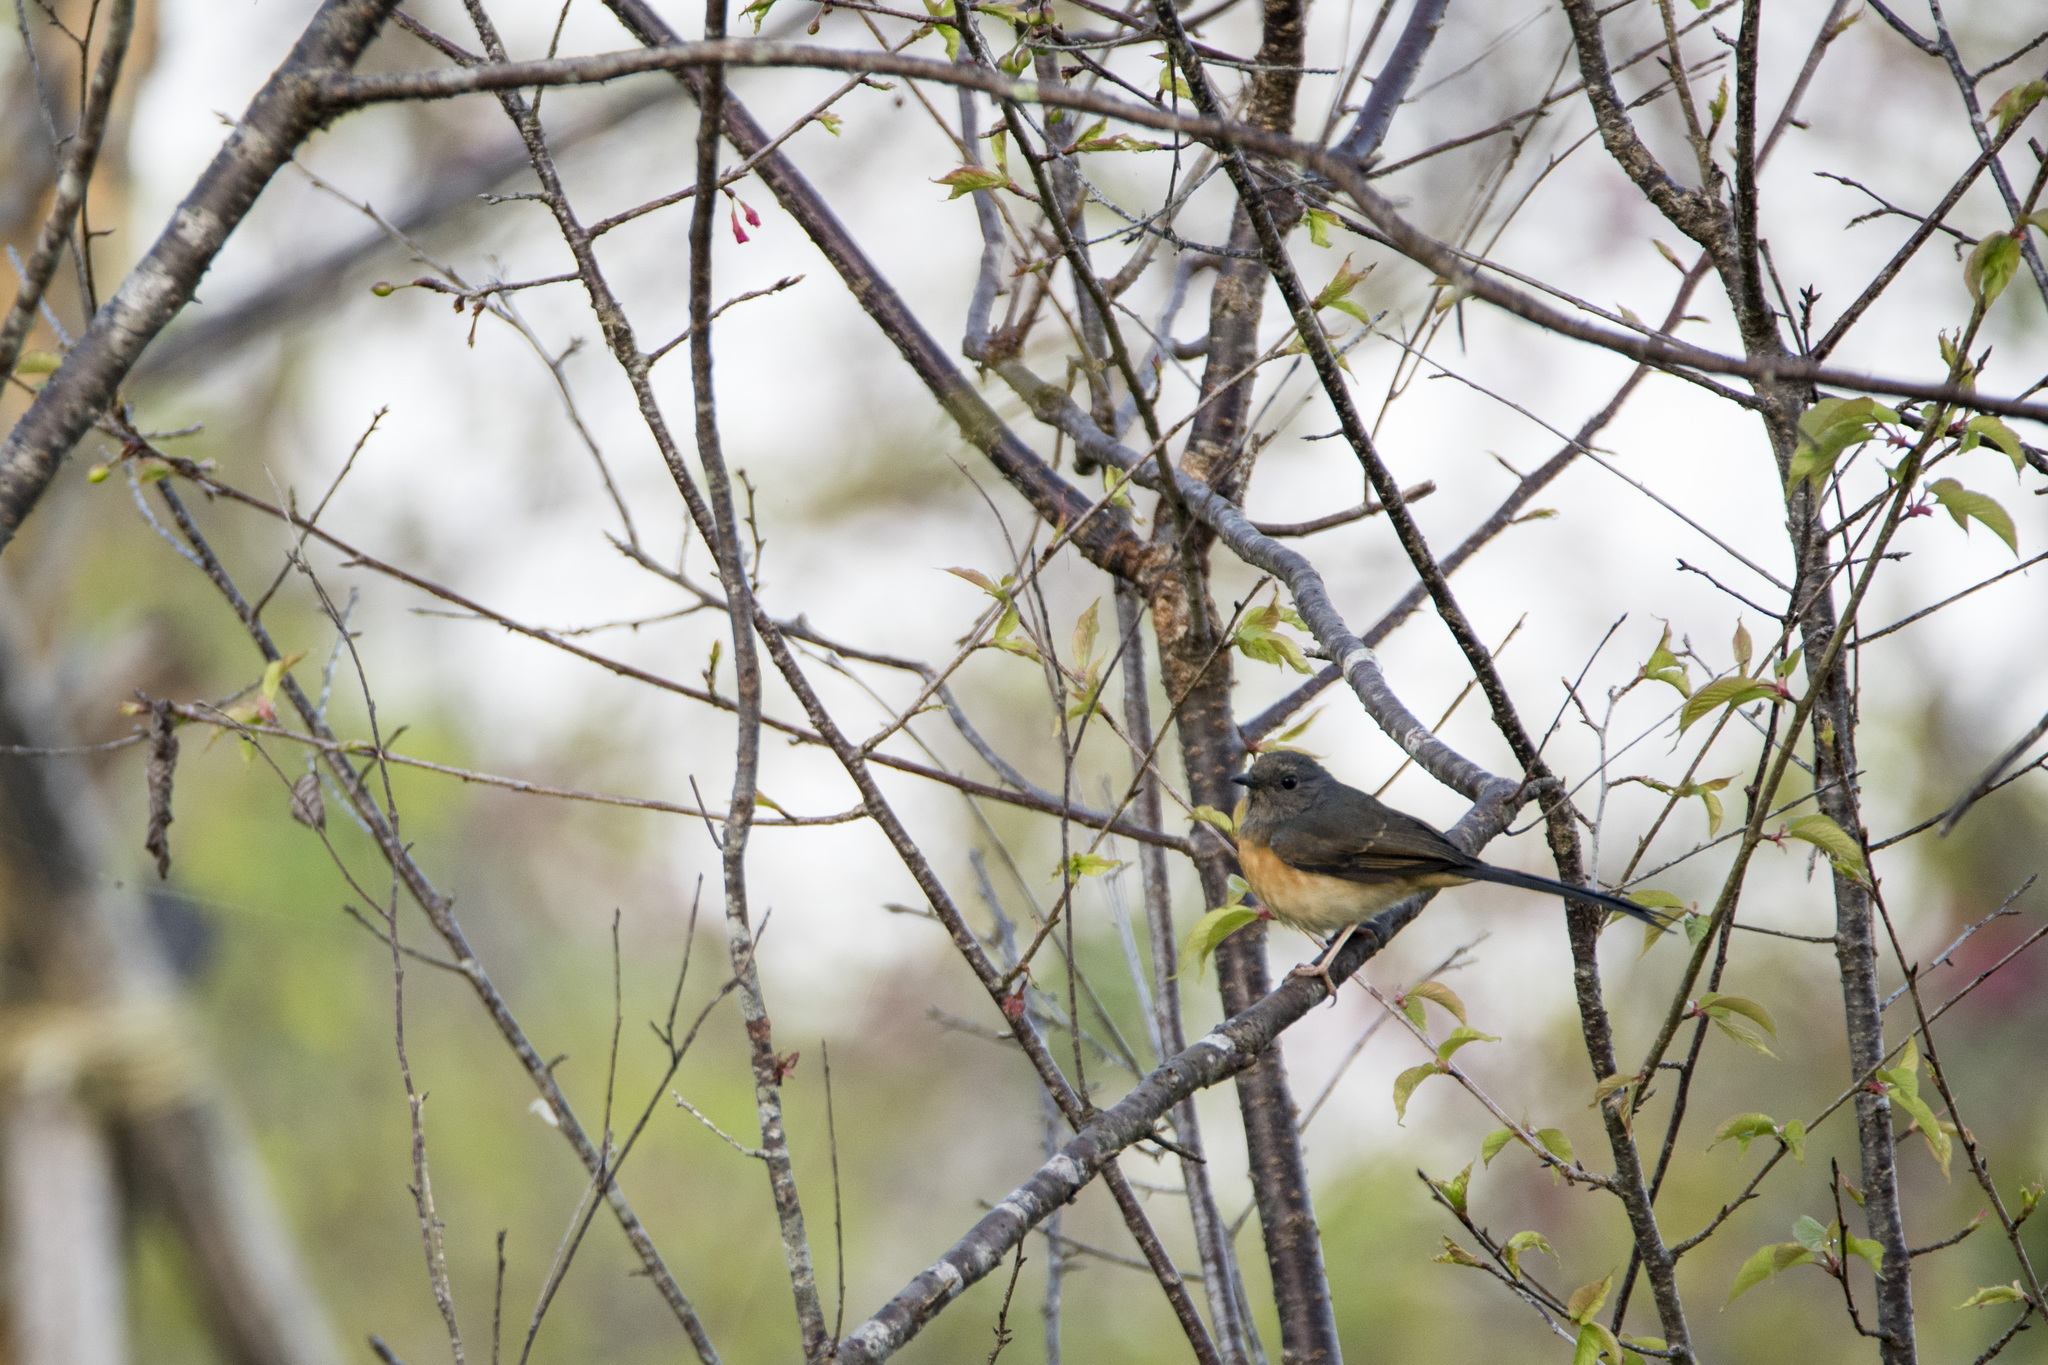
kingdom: Animalia
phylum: Chordata
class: Aves
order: Passeriformes
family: Muscicapidae
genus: Copsychus
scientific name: Copsychus malabaricus
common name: White-rumped shama
